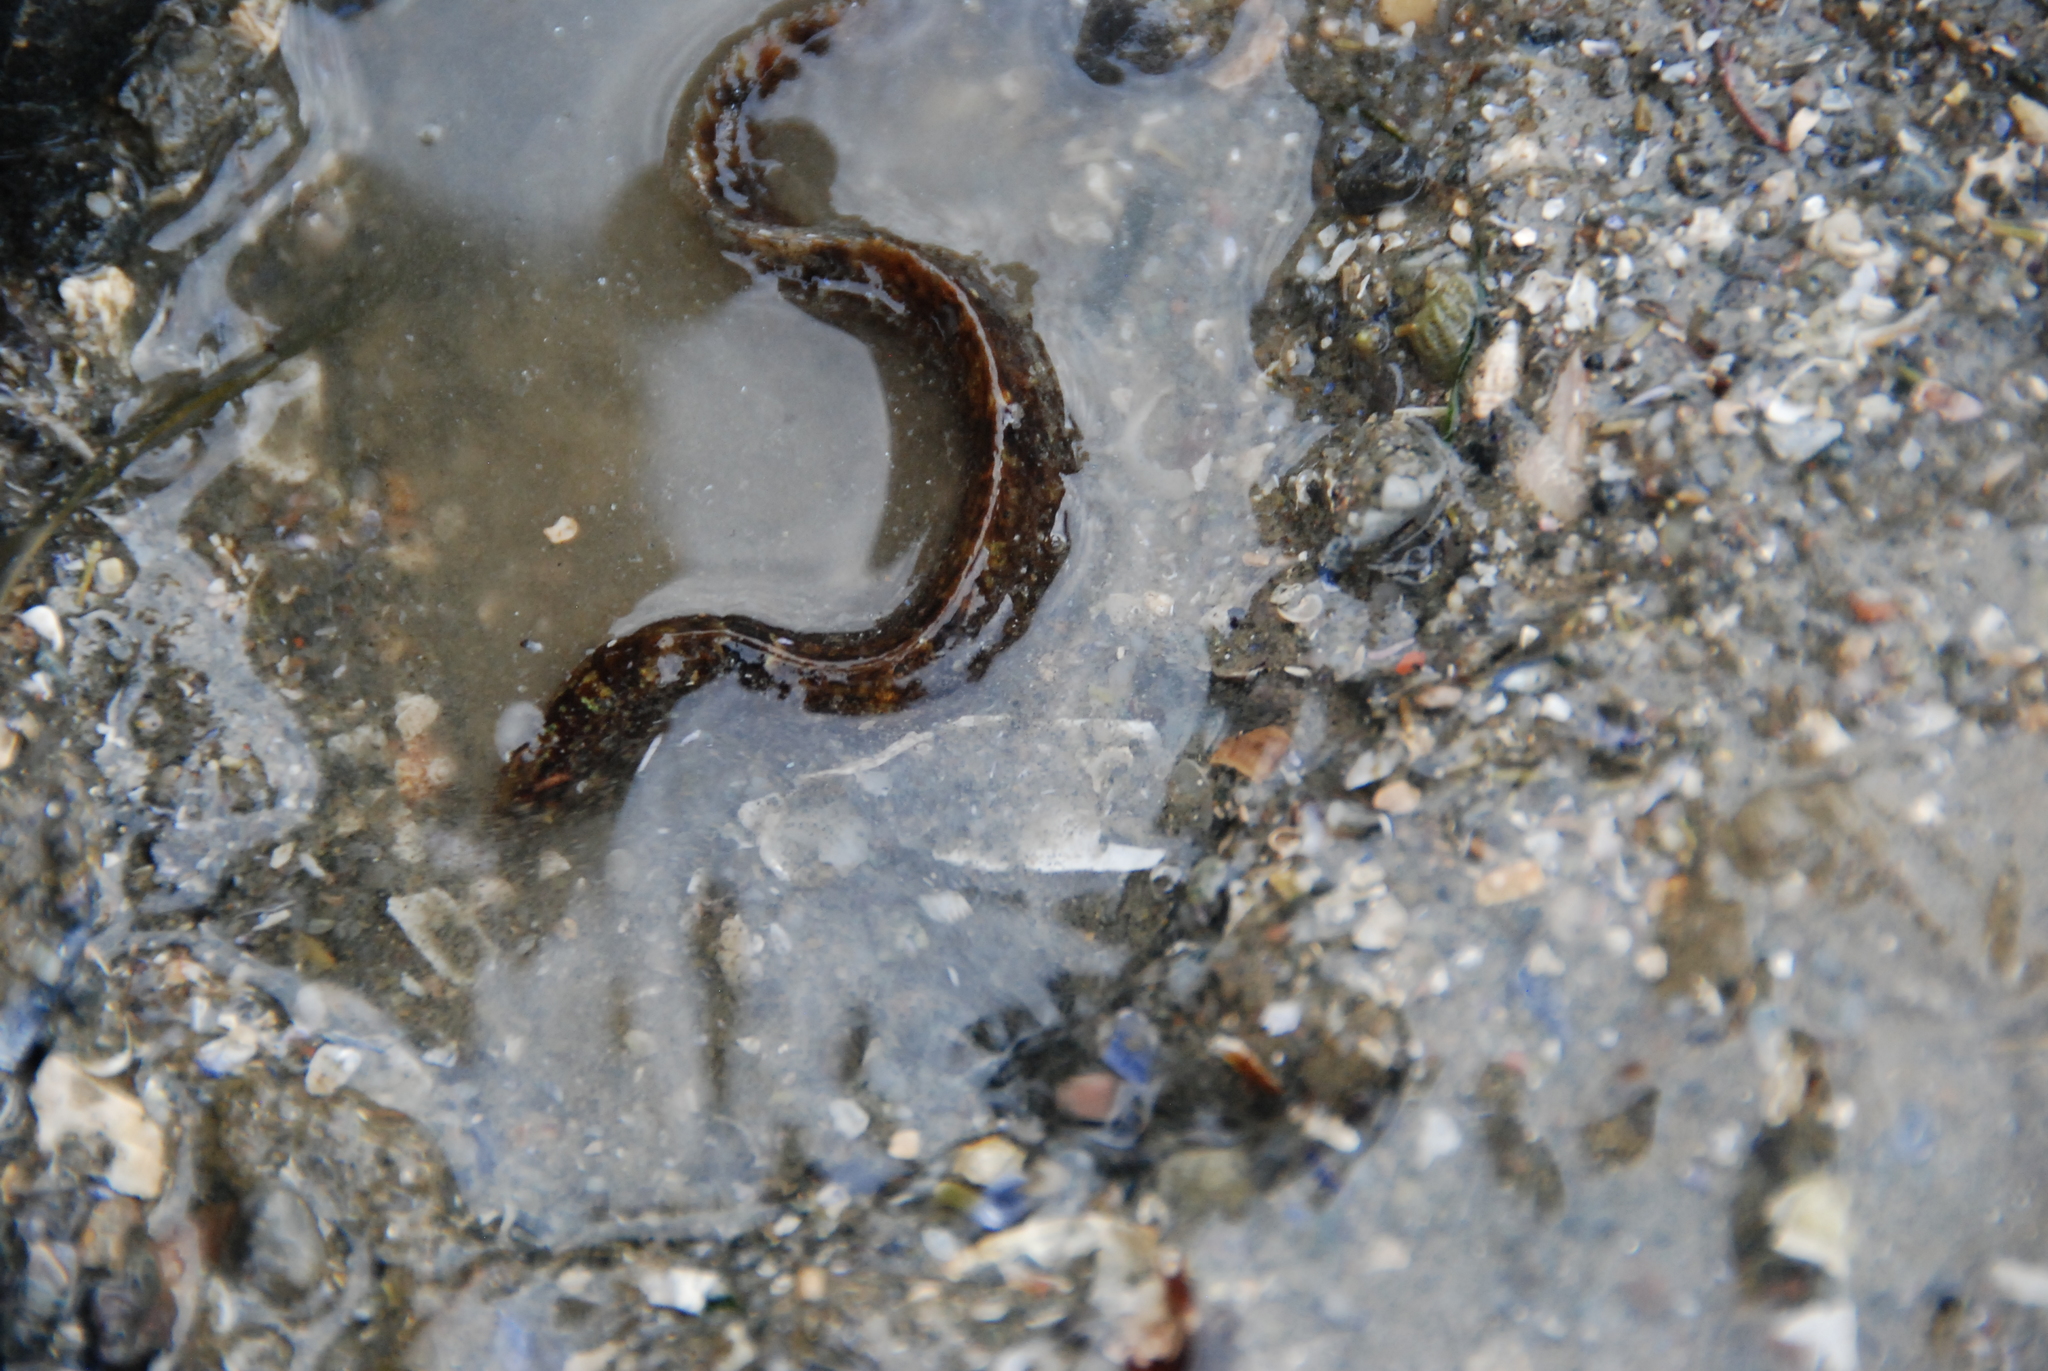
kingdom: Animalia
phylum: Chordata
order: Perciformes
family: Pholidae
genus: Pholis
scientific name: Pholis gunnellus
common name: Butterfish
